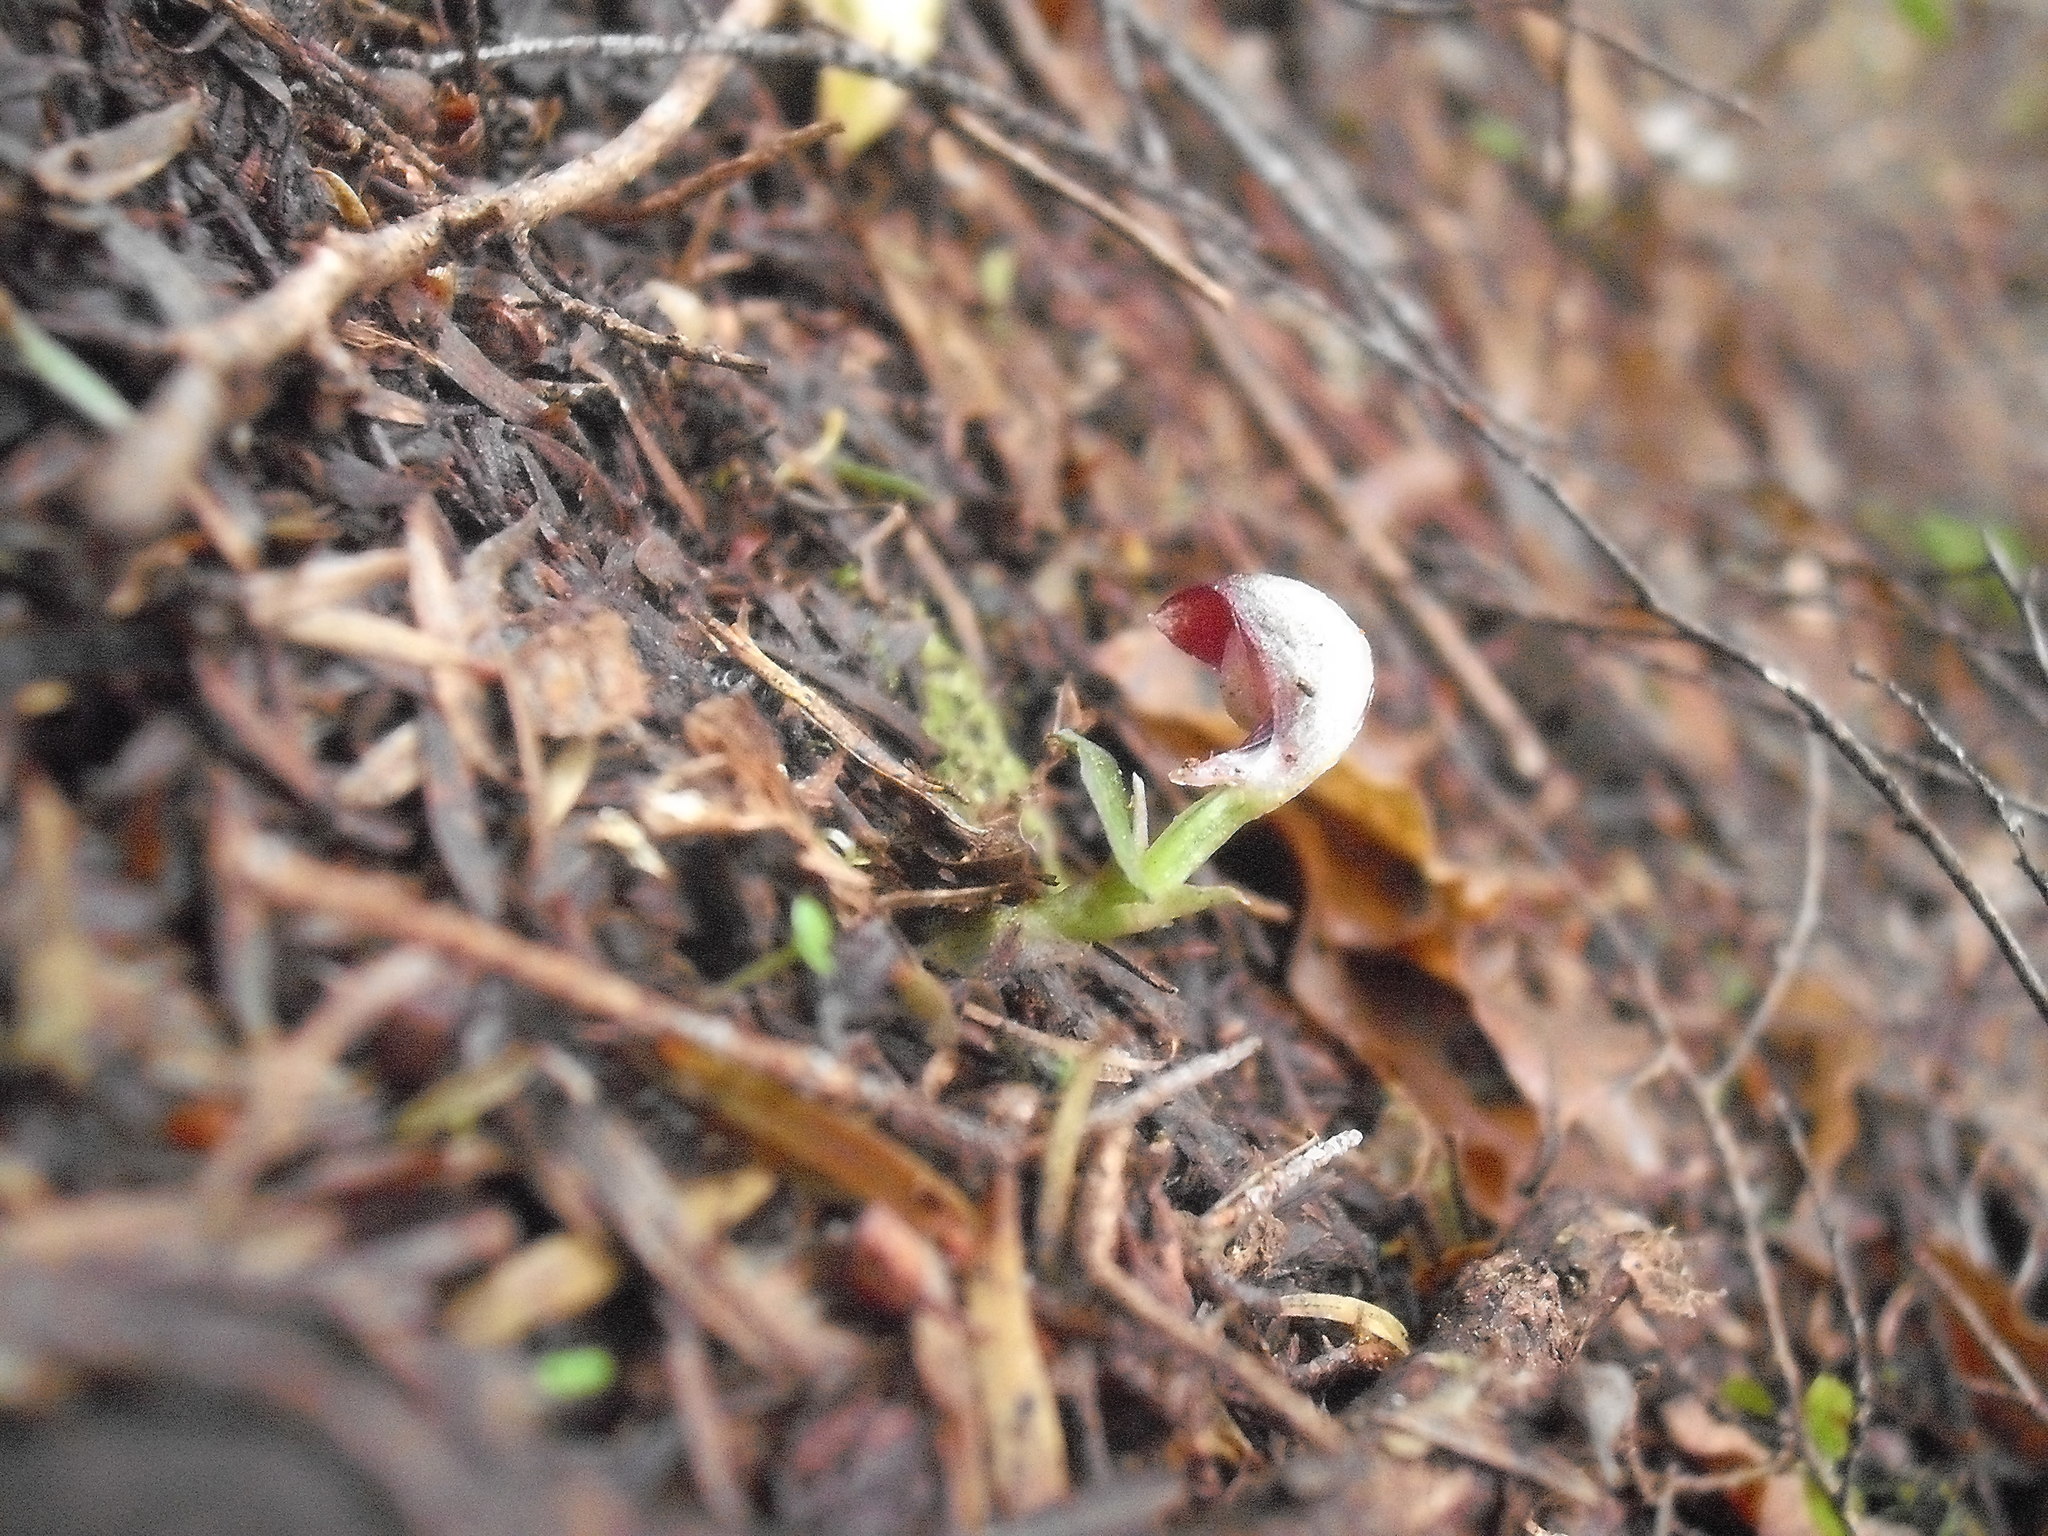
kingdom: Plantae
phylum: Tracheophyta
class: Liliopsida
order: Asparagales
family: Orchidaceae
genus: Corybas
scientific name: Corybas cheesemanii
